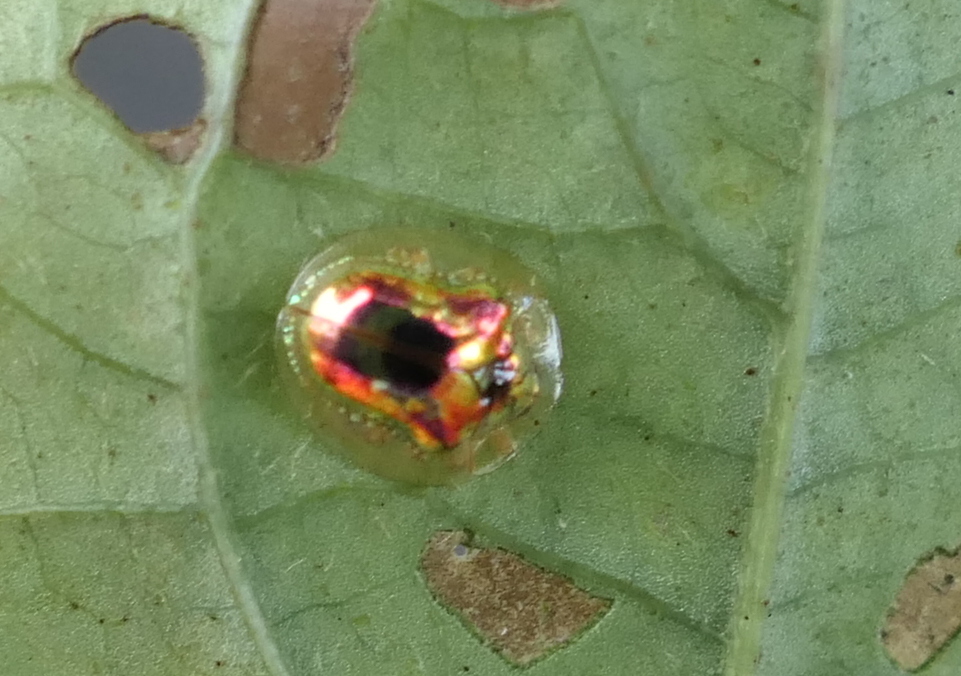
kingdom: Animalia
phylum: Arthropoda
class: Insecta
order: Coleoptera
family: Chrysomelidae
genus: Charidotella
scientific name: Charidotella zona
